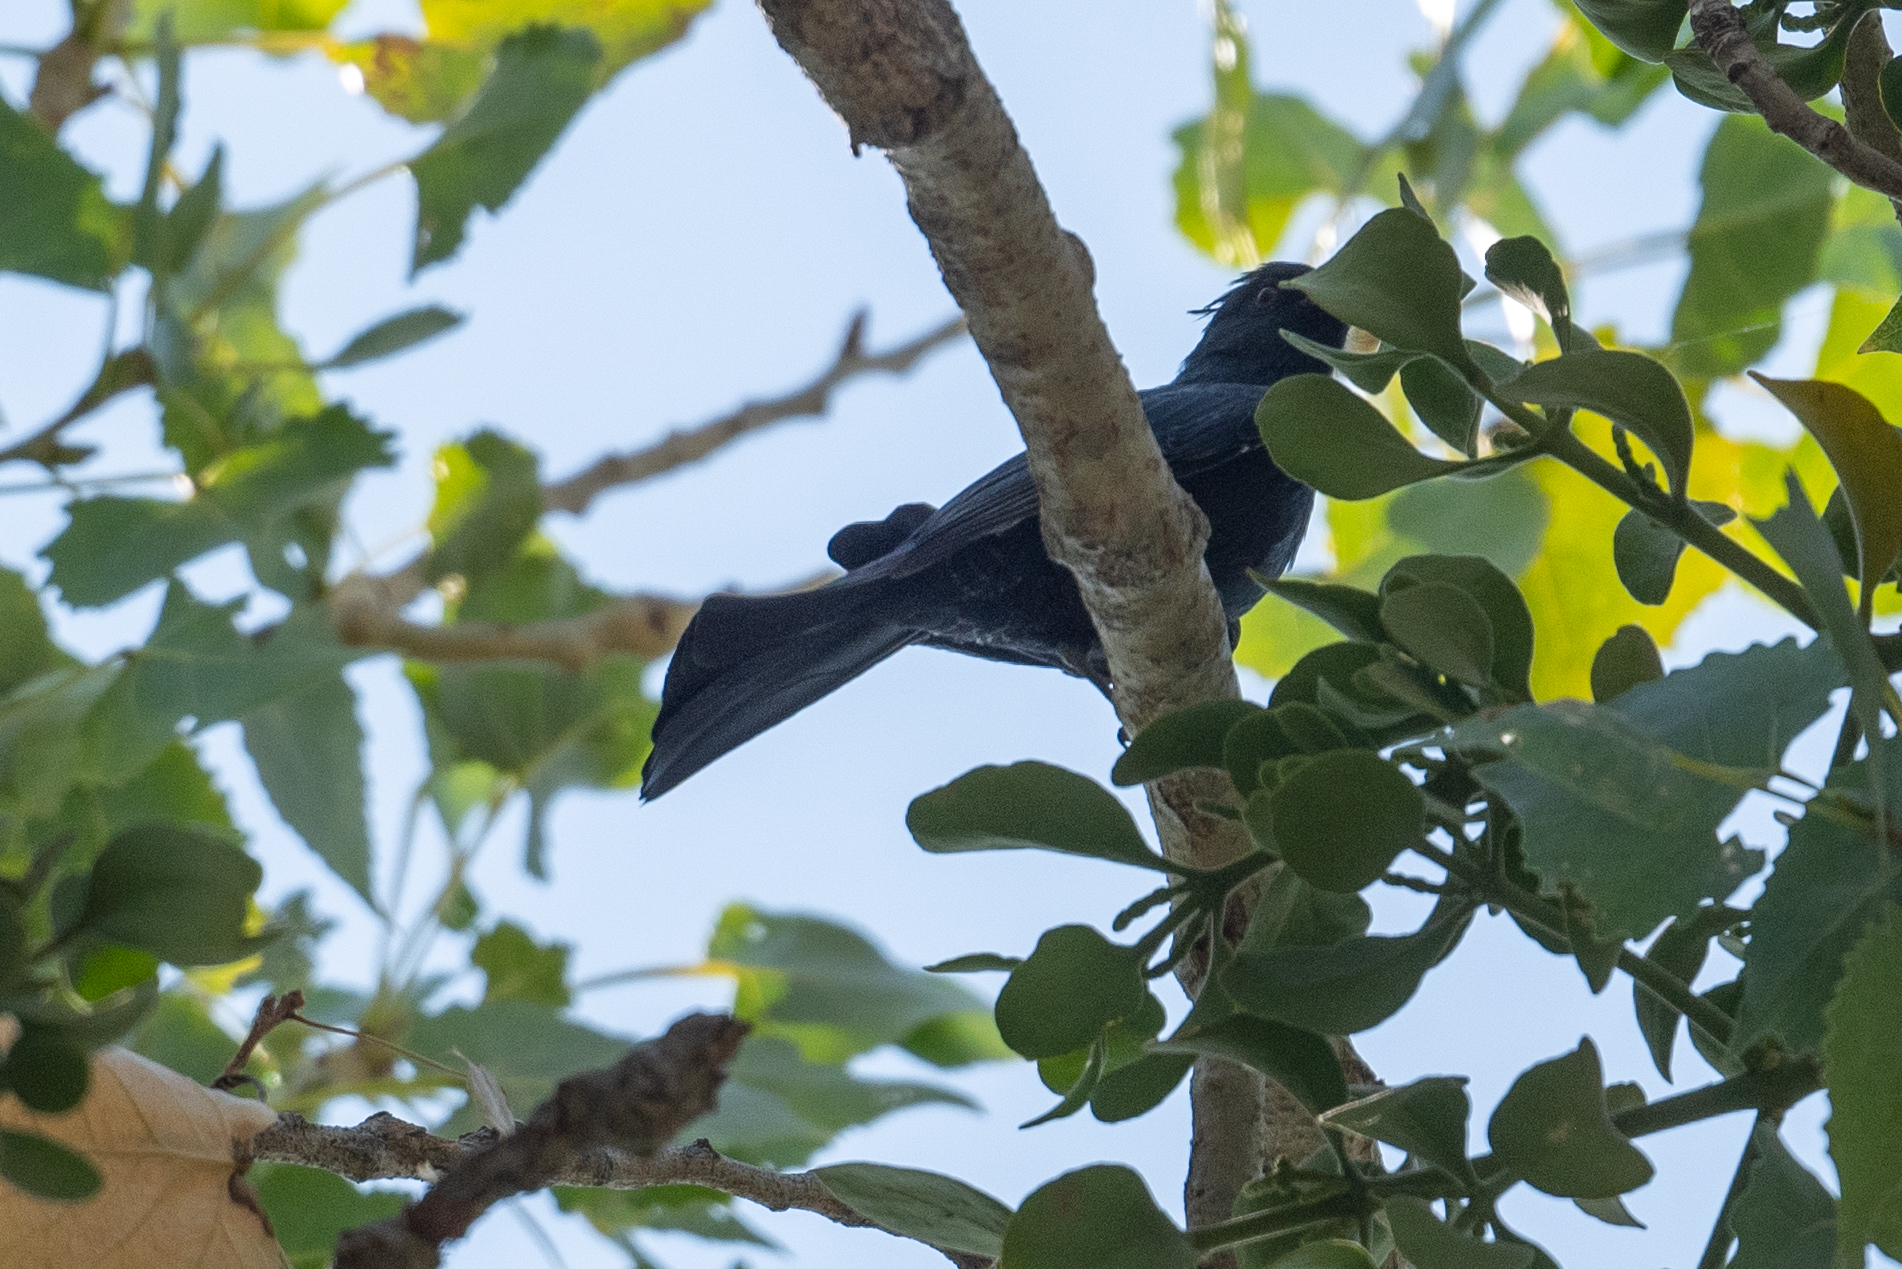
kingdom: Animalia
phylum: Chordata
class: Aves
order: Passeriformes
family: Ptilogonatidae
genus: Phainopepla
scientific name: Phainopepla nitens
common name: Phainopepla
